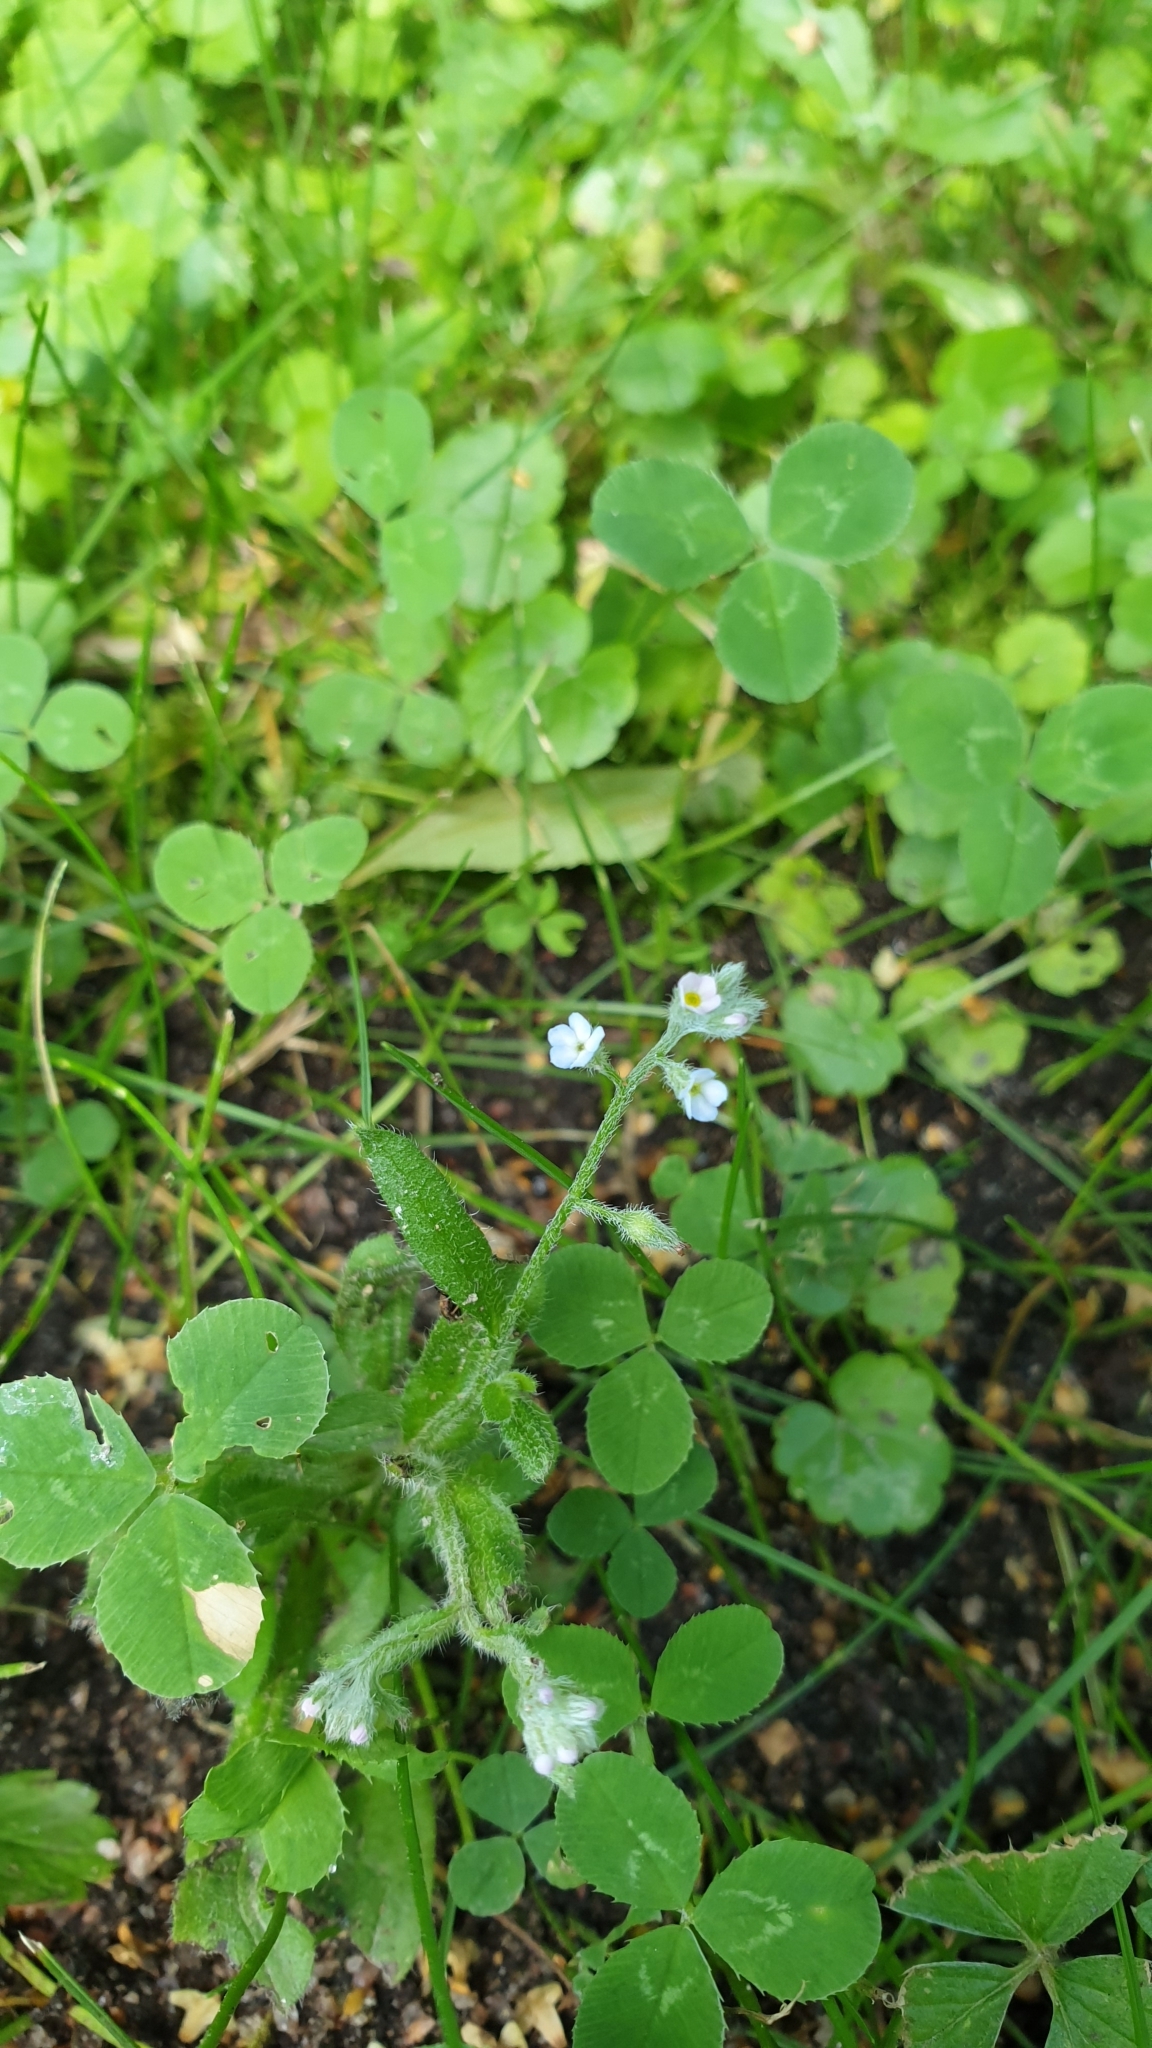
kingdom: Plantae
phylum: Tracheophyta
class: Magnoliopsida
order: Boraginales
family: Boraginaceae
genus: Myosotis
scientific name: Myosotis arvensis
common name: Field forget-me-not
